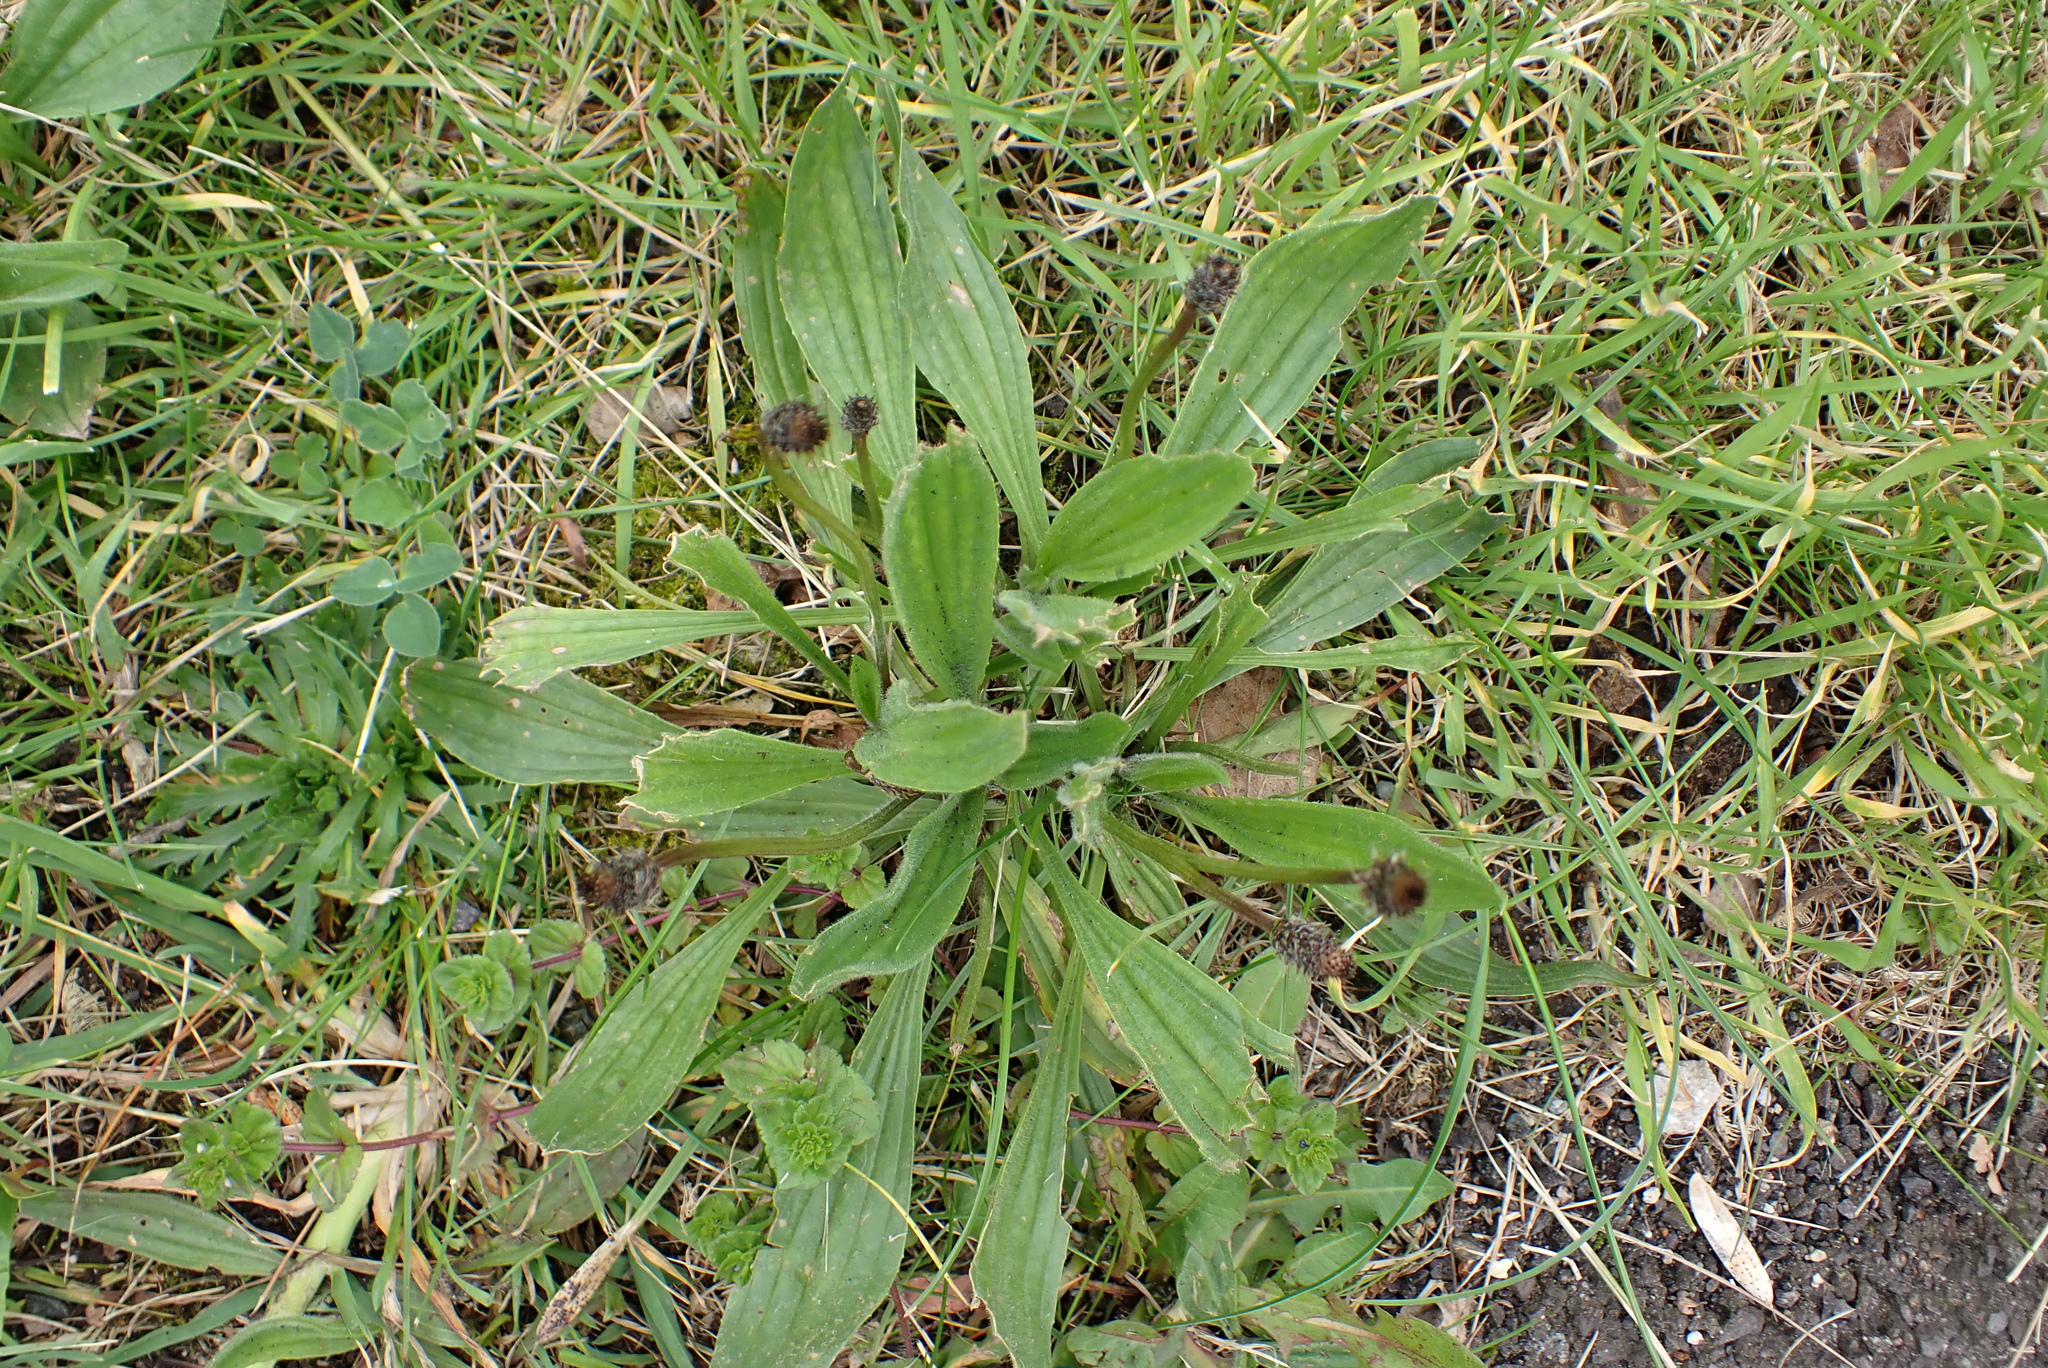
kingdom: Plantae
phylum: Tracheophyta
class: Magnoliopsida
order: Lamiales
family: Plantaginaceae
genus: Plantago
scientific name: Plantago lanceolata
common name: Ribwort plantain
